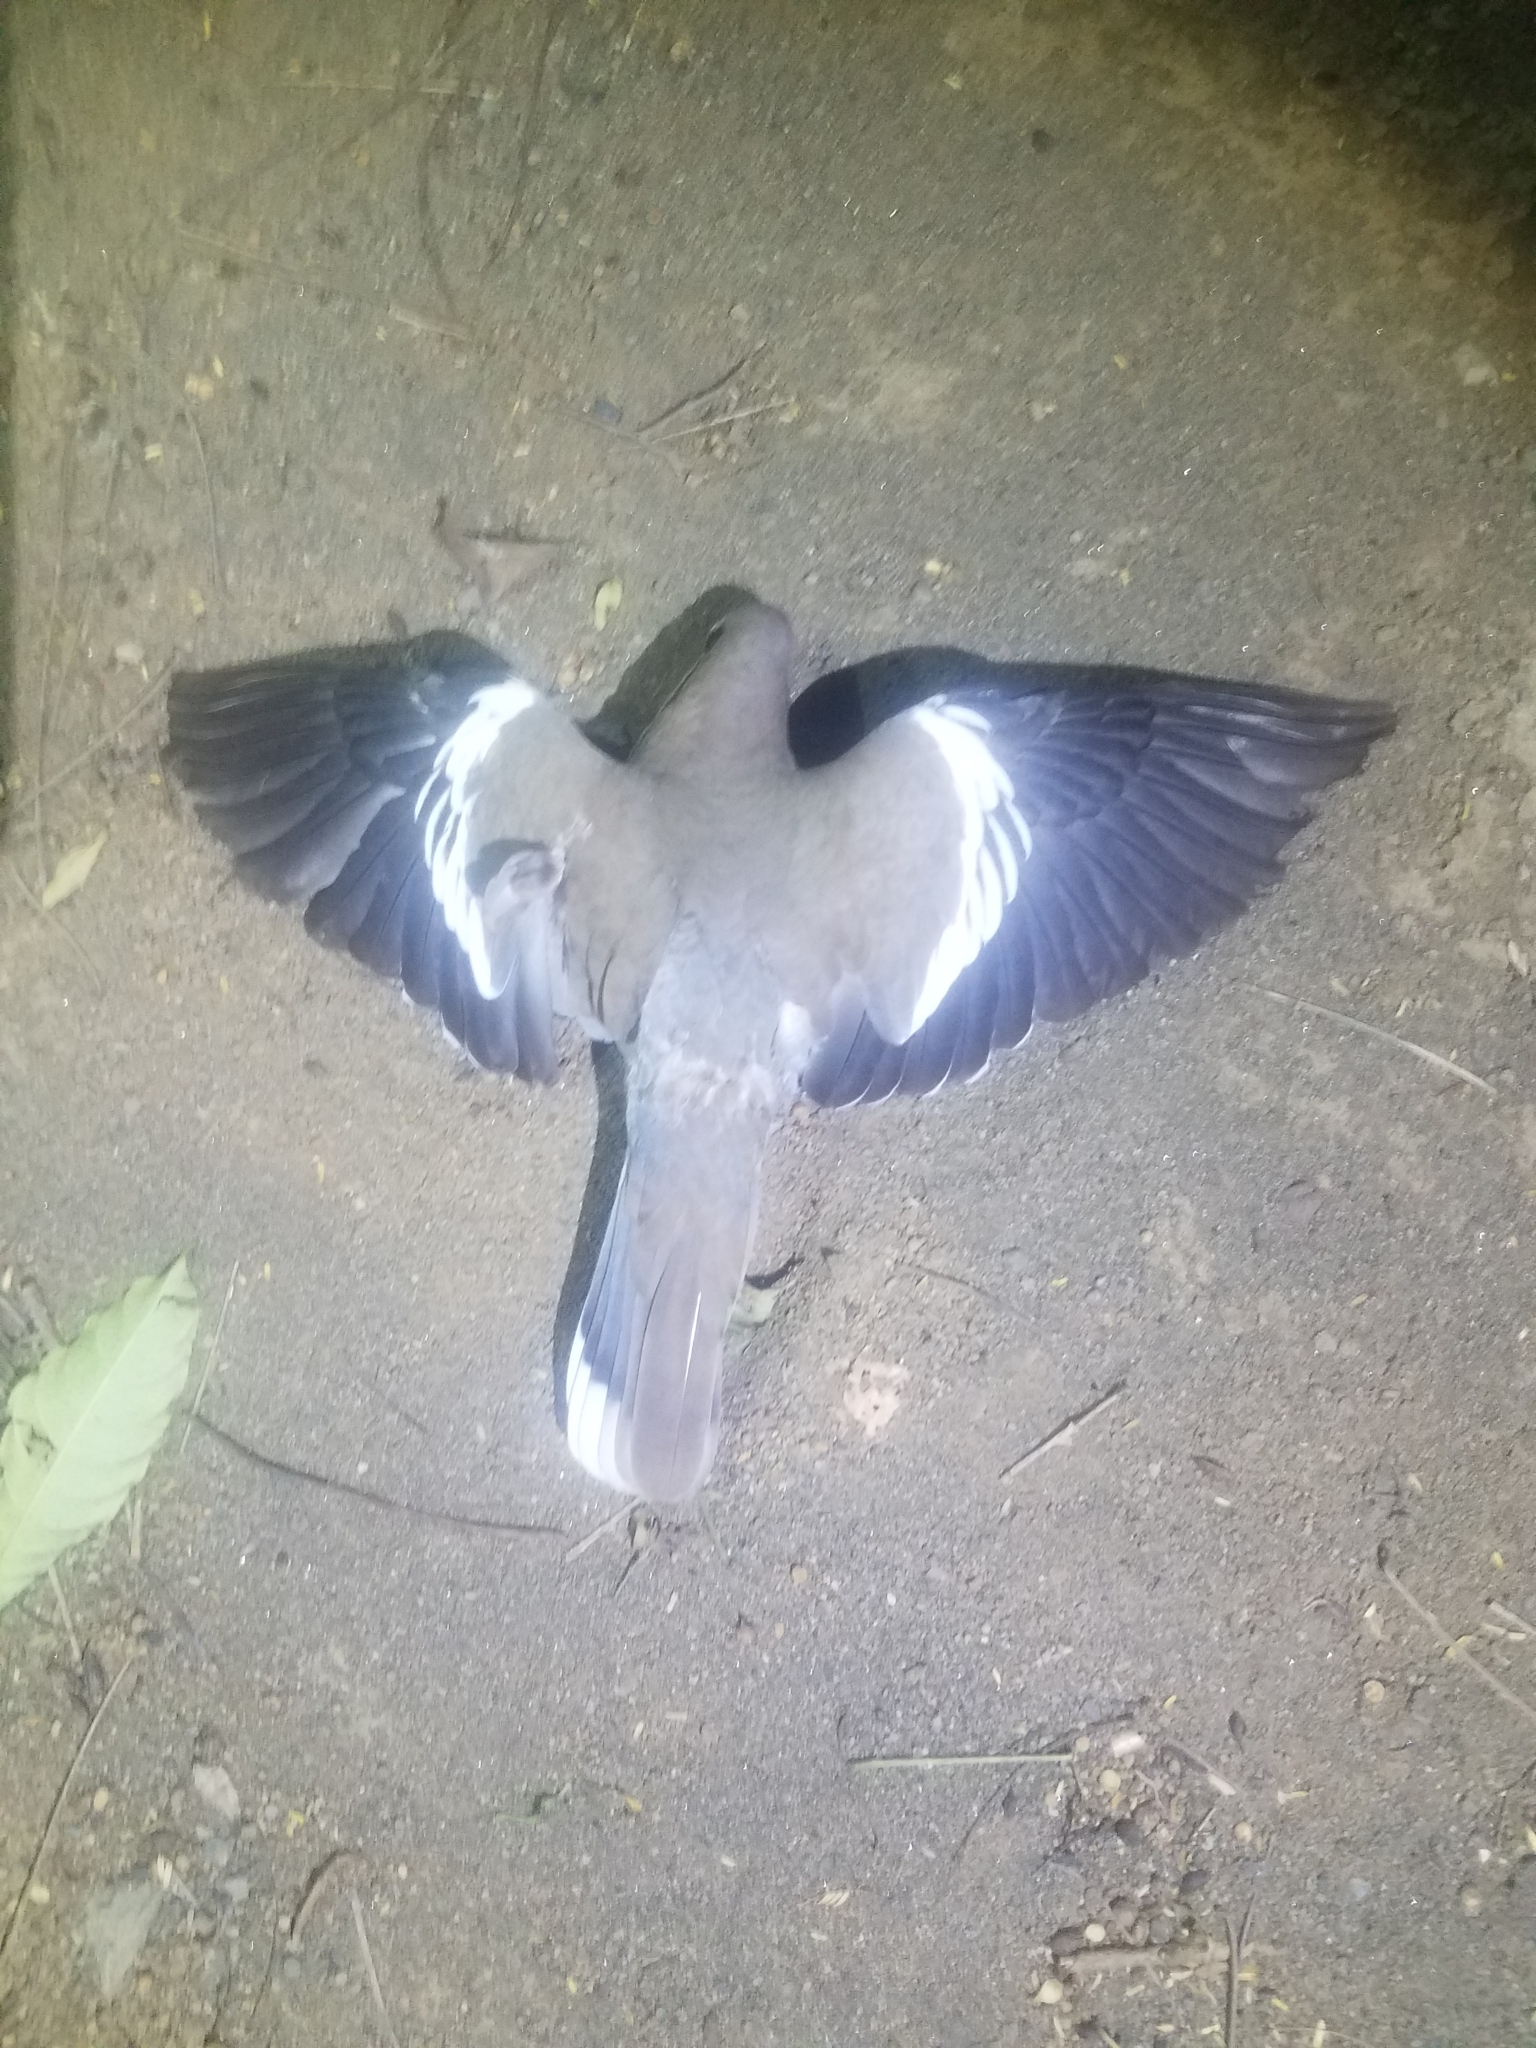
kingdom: Animalia
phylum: Chordata
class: Aves
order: Columbiformes
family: Columbidae
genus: Zenaida
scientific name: Zenaida asiatica
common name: White-winged dove
